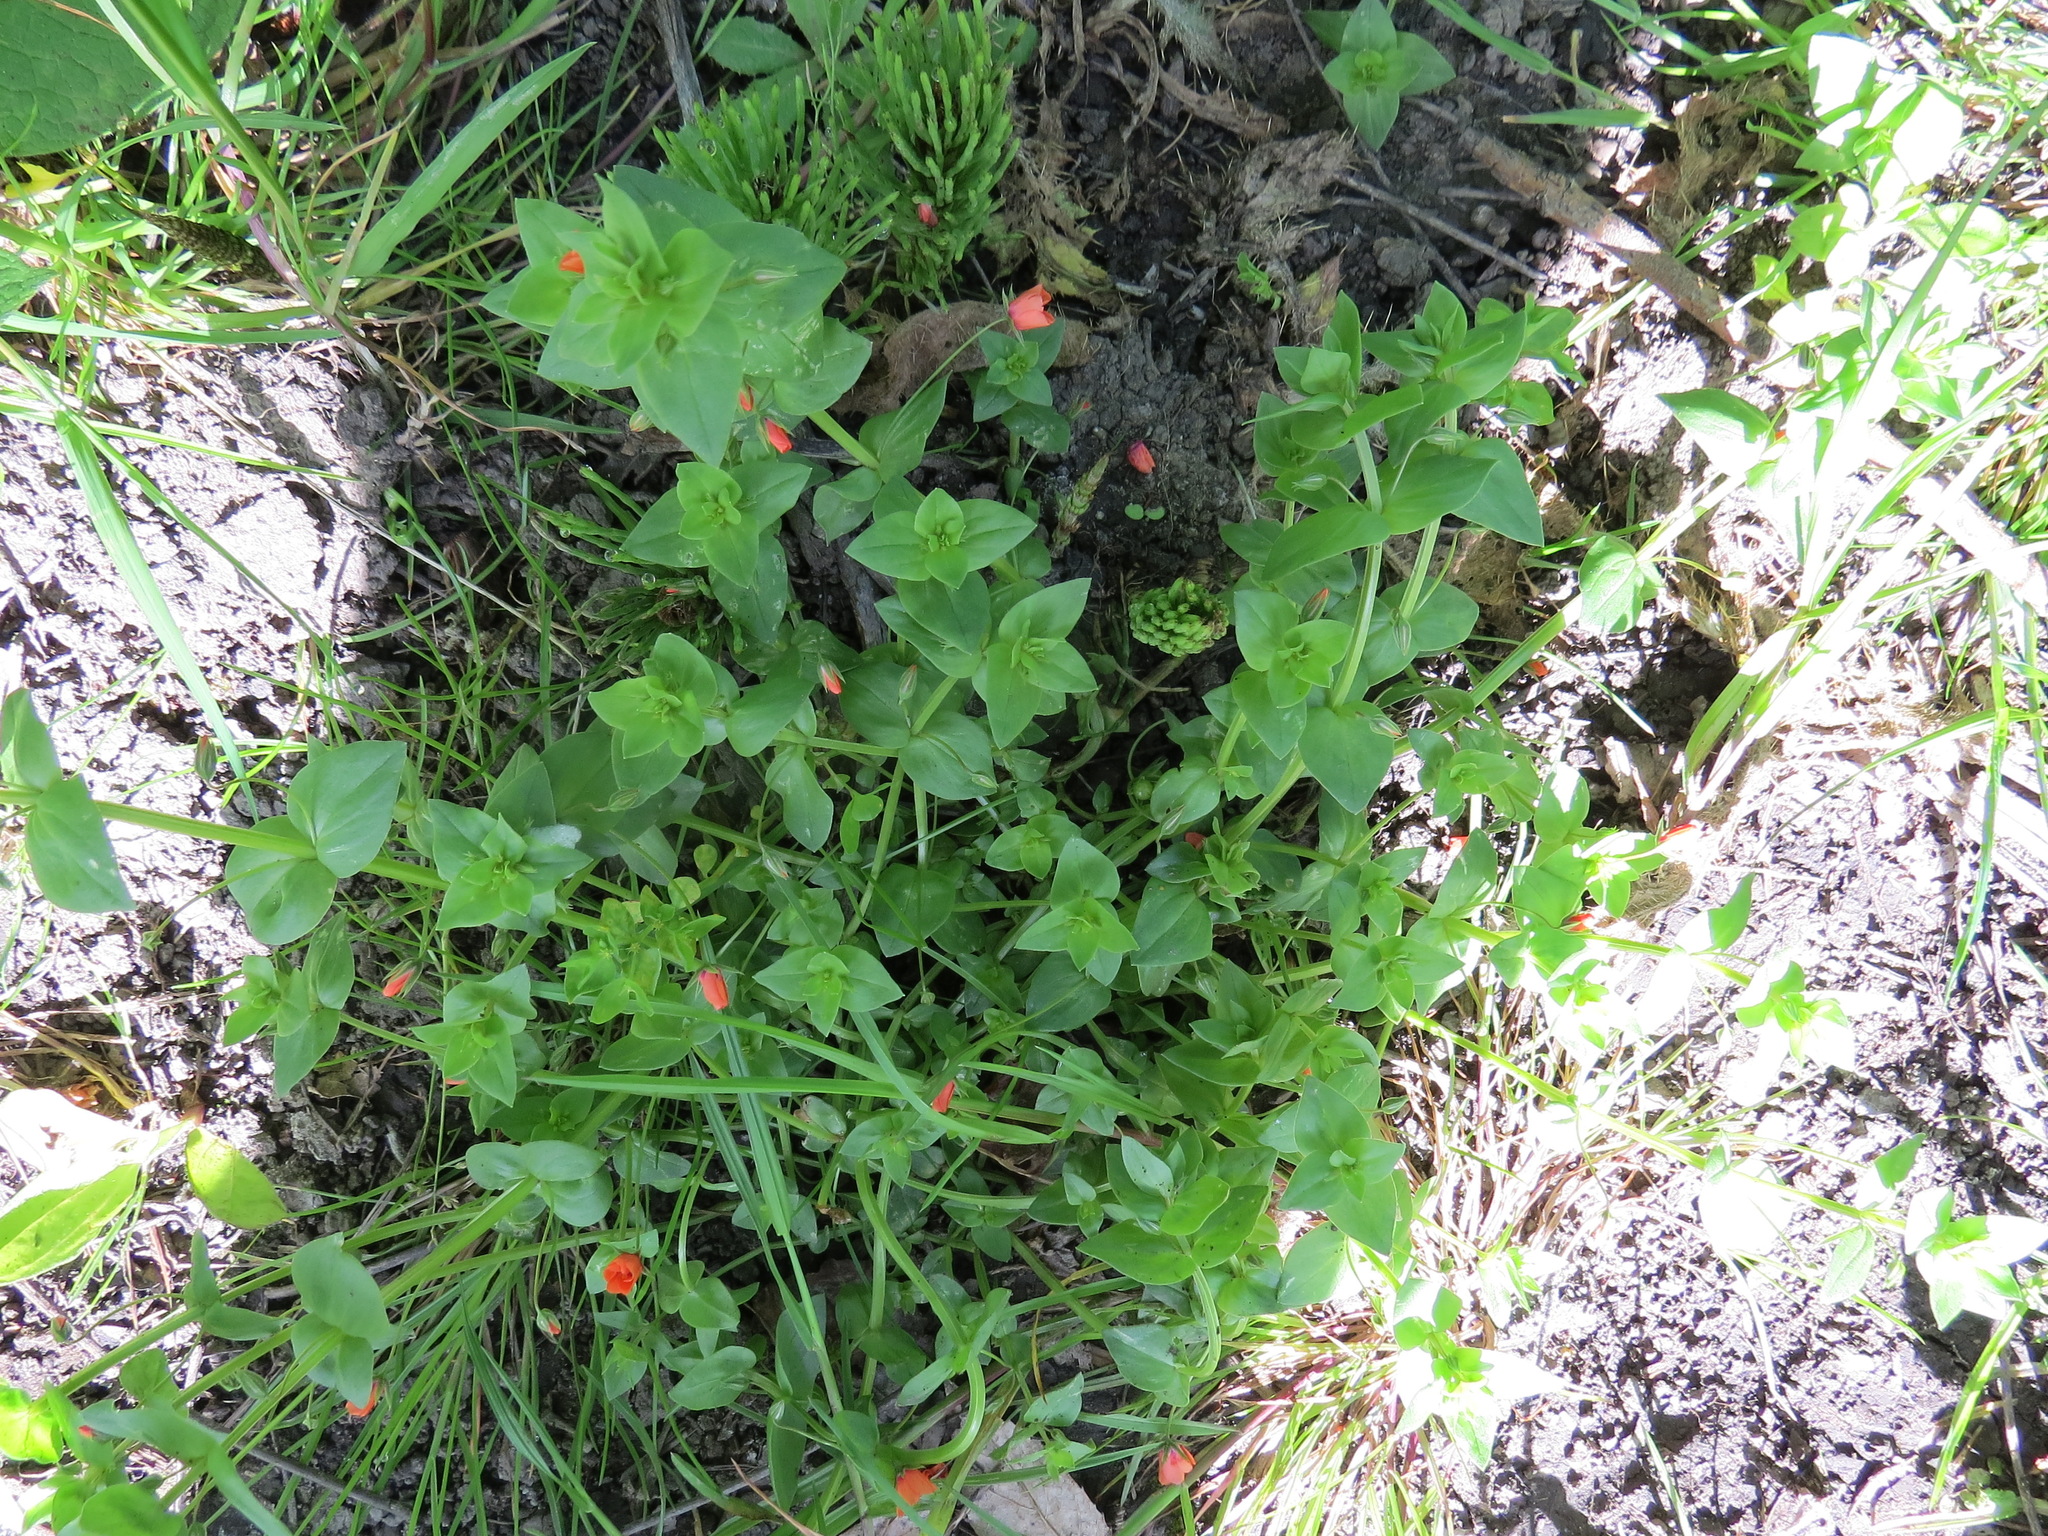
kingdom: Plantae
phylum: Tracheophyta
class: Magnoliopsida
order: Ericales
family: Primulaceae
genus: Lysimachia
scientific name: Lysimachia arvensis
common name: Scarlet pimpernel
